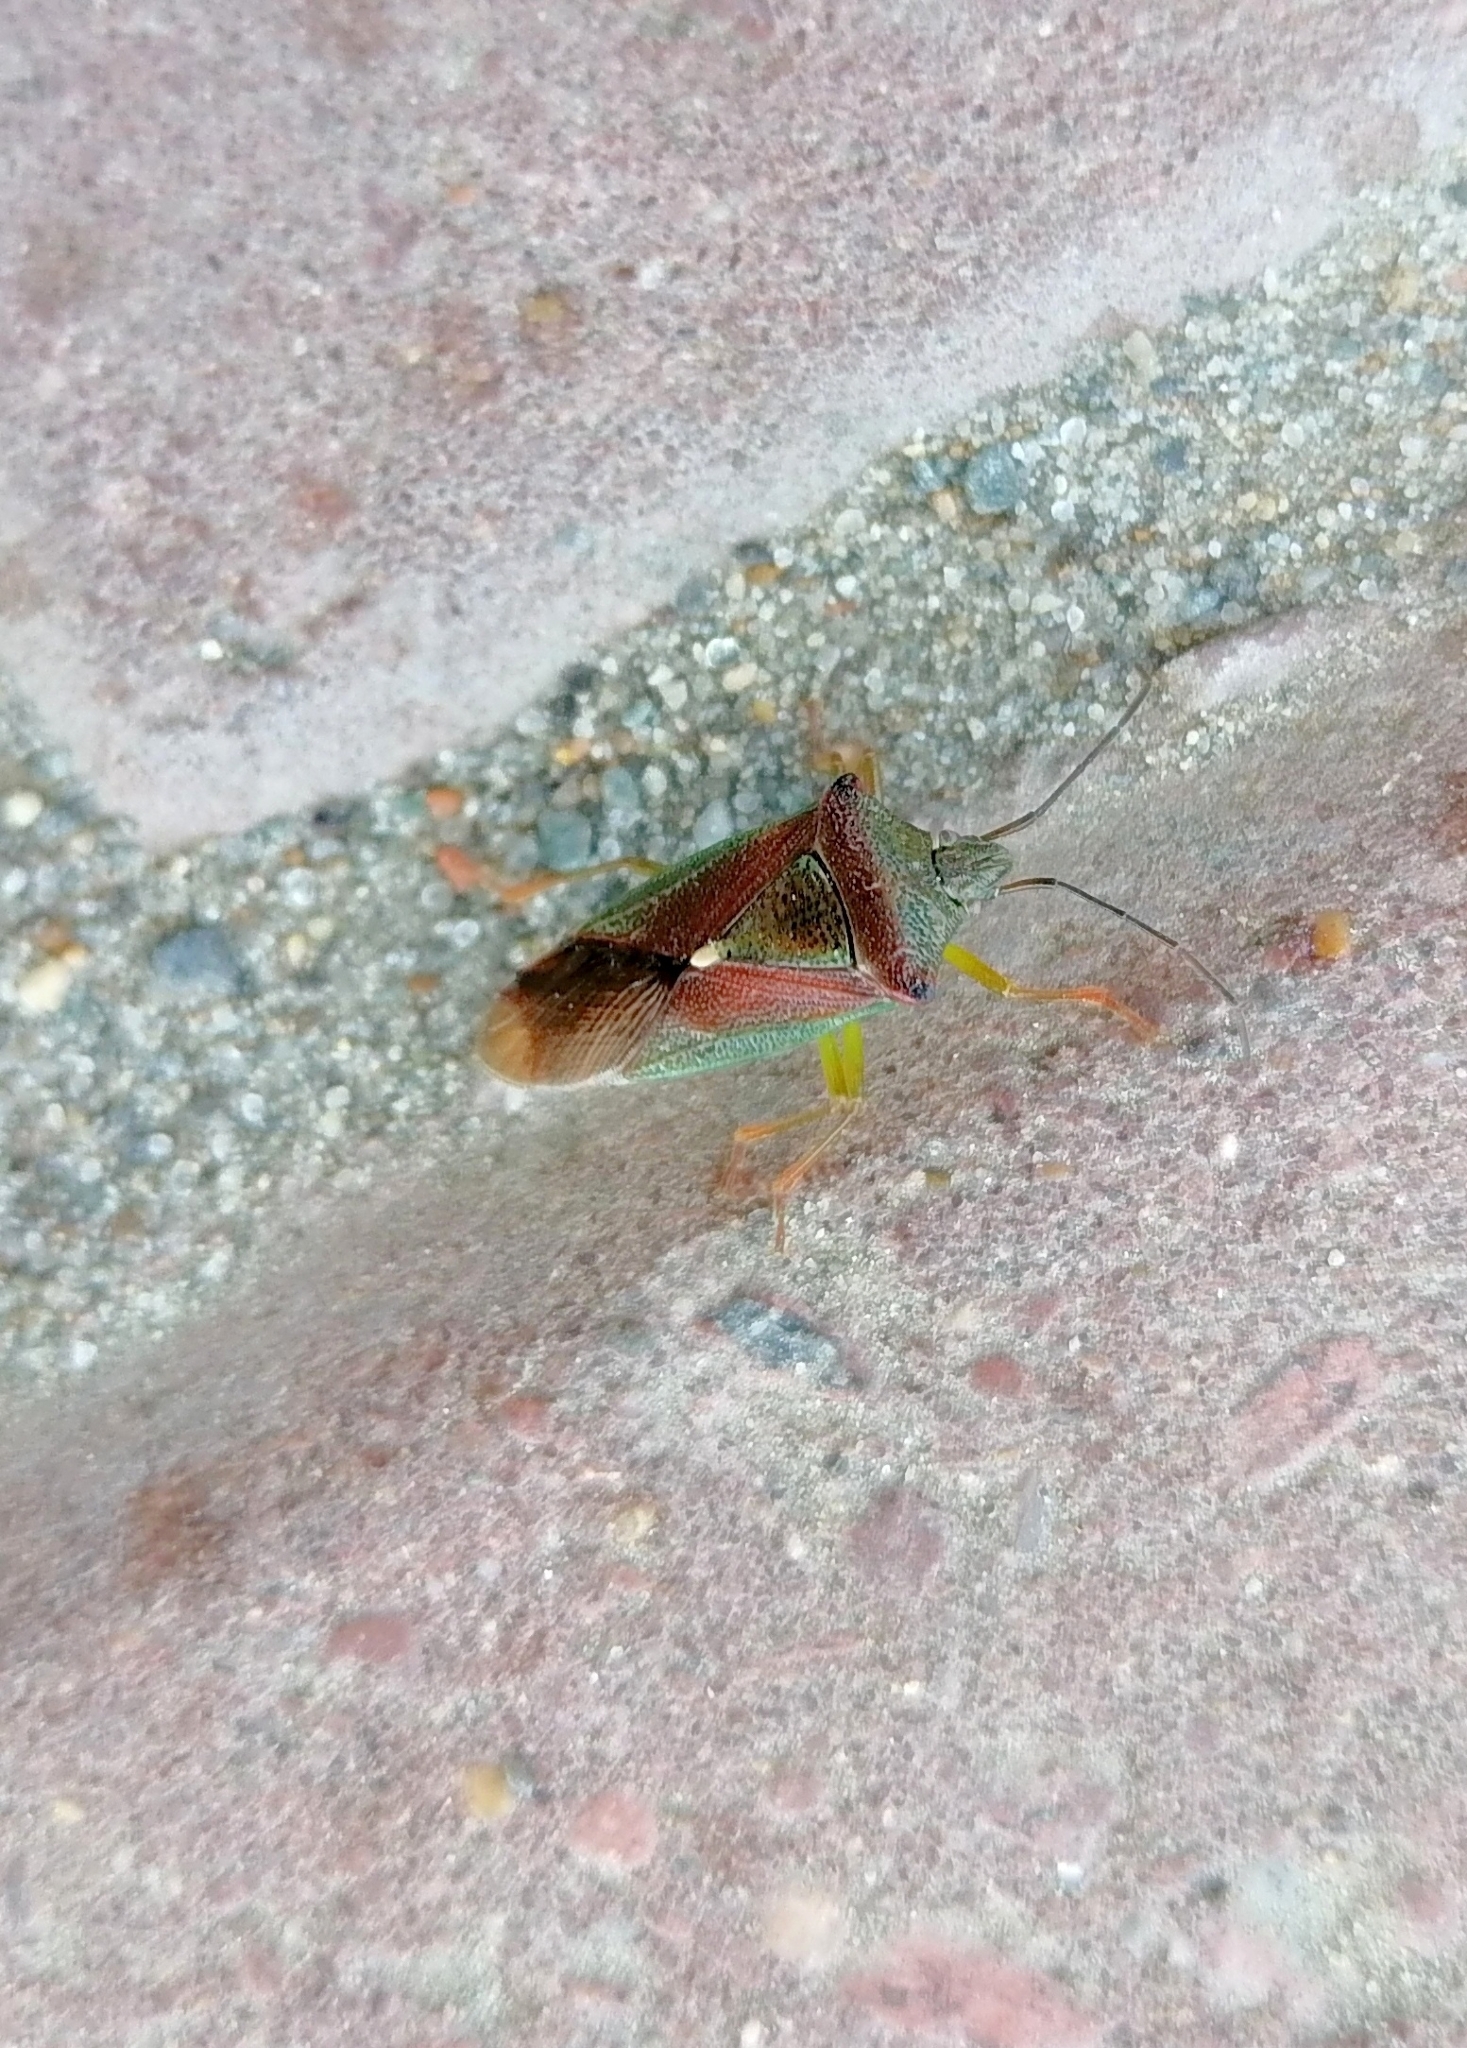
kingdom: Animalia
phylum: Arthropoda
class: Insecta
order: Hemiptera
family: Acanthosomatidae
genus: Acanthosoma
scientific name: Acanthosoma spinicolle
